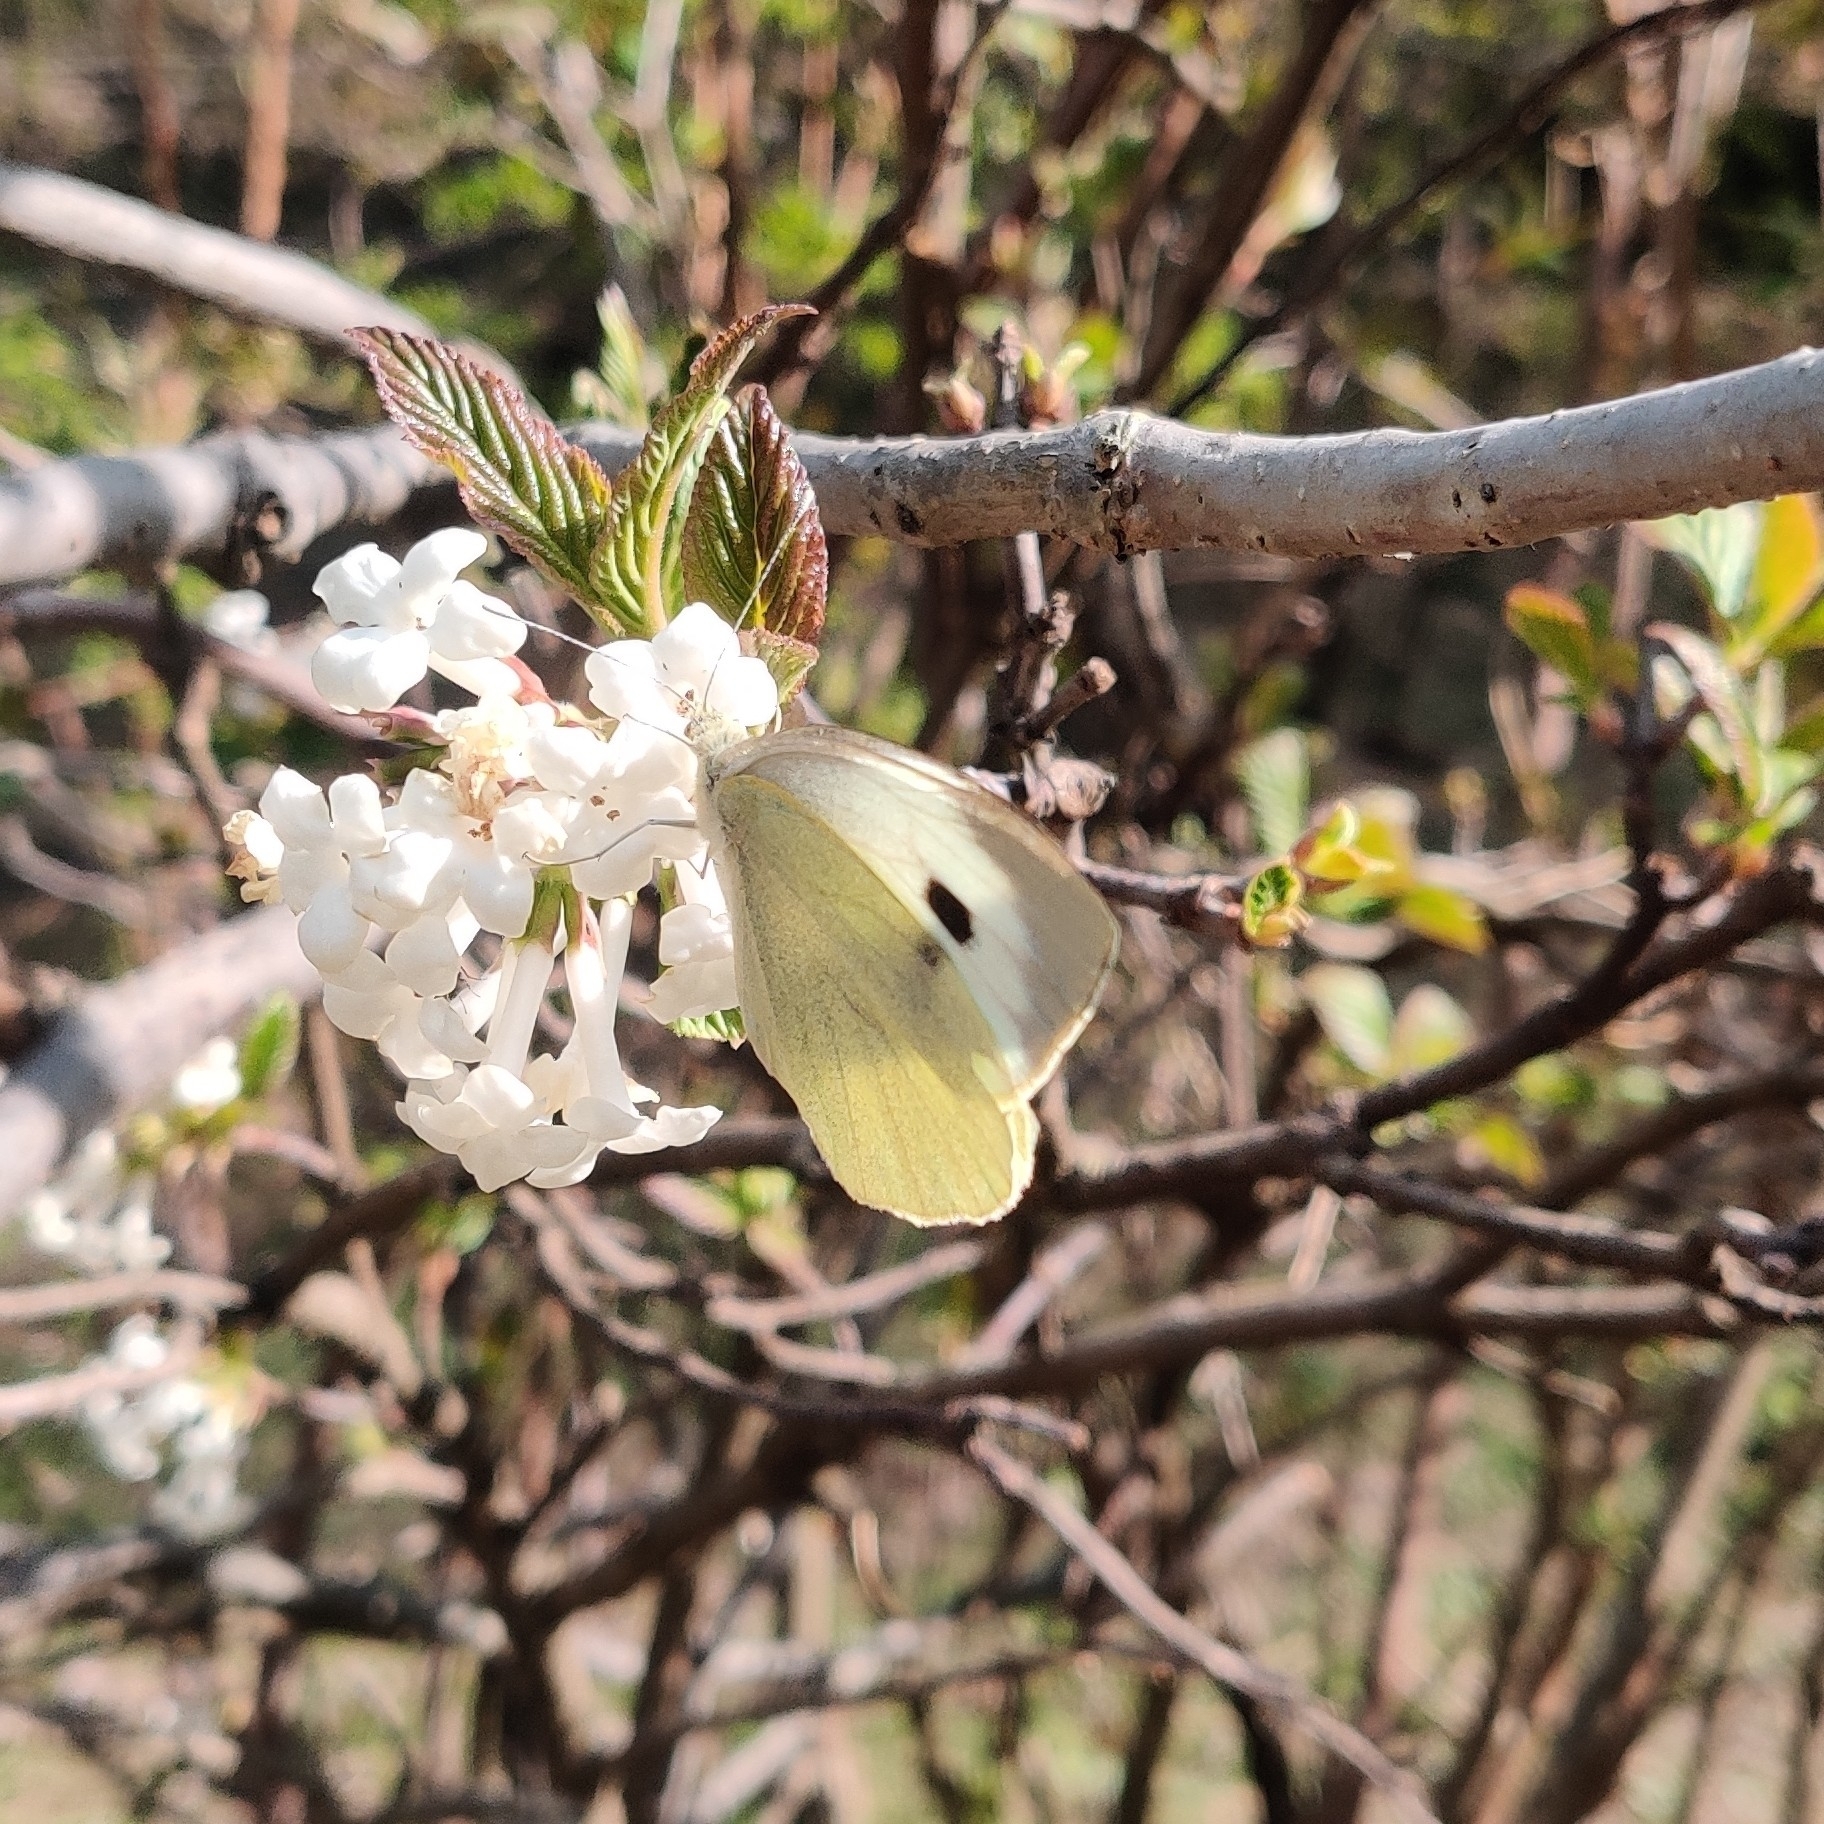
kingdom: Animalia
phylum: Arthropoda
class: Insecta
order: Lepidoptera
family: Pieridae
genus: Pieris
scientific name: Pieris brassicae
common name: Large white
